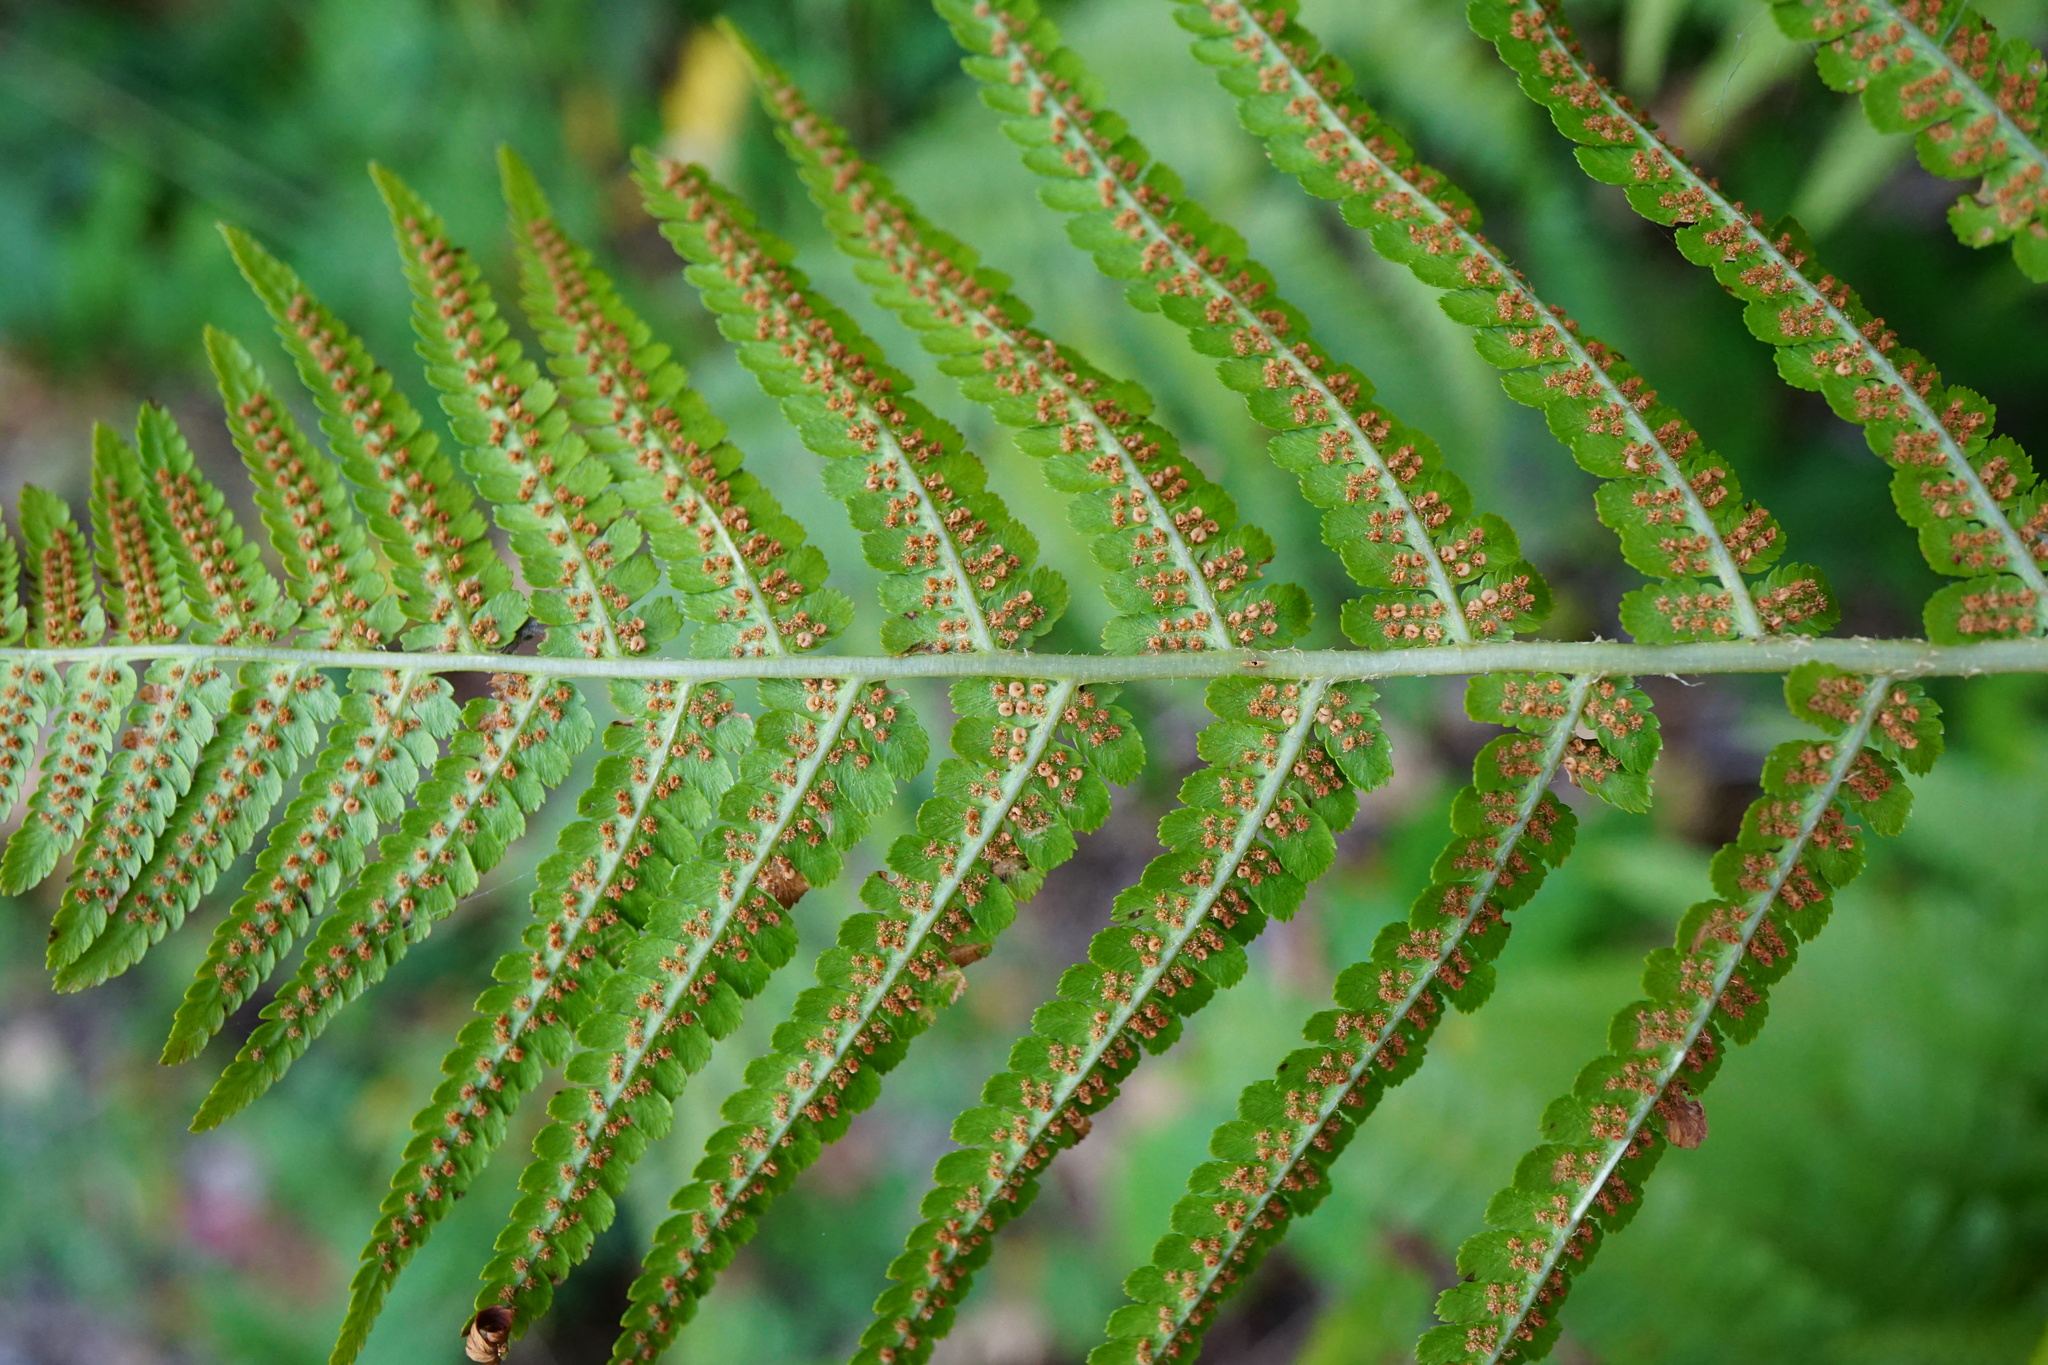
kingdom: Plantae
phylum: Tracheophyta
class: Polypodiopsida
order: Polypodiales
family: Dryopteridaceae
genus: Dryopteris
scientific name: Dryopteris filix-mas
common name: Male fern
